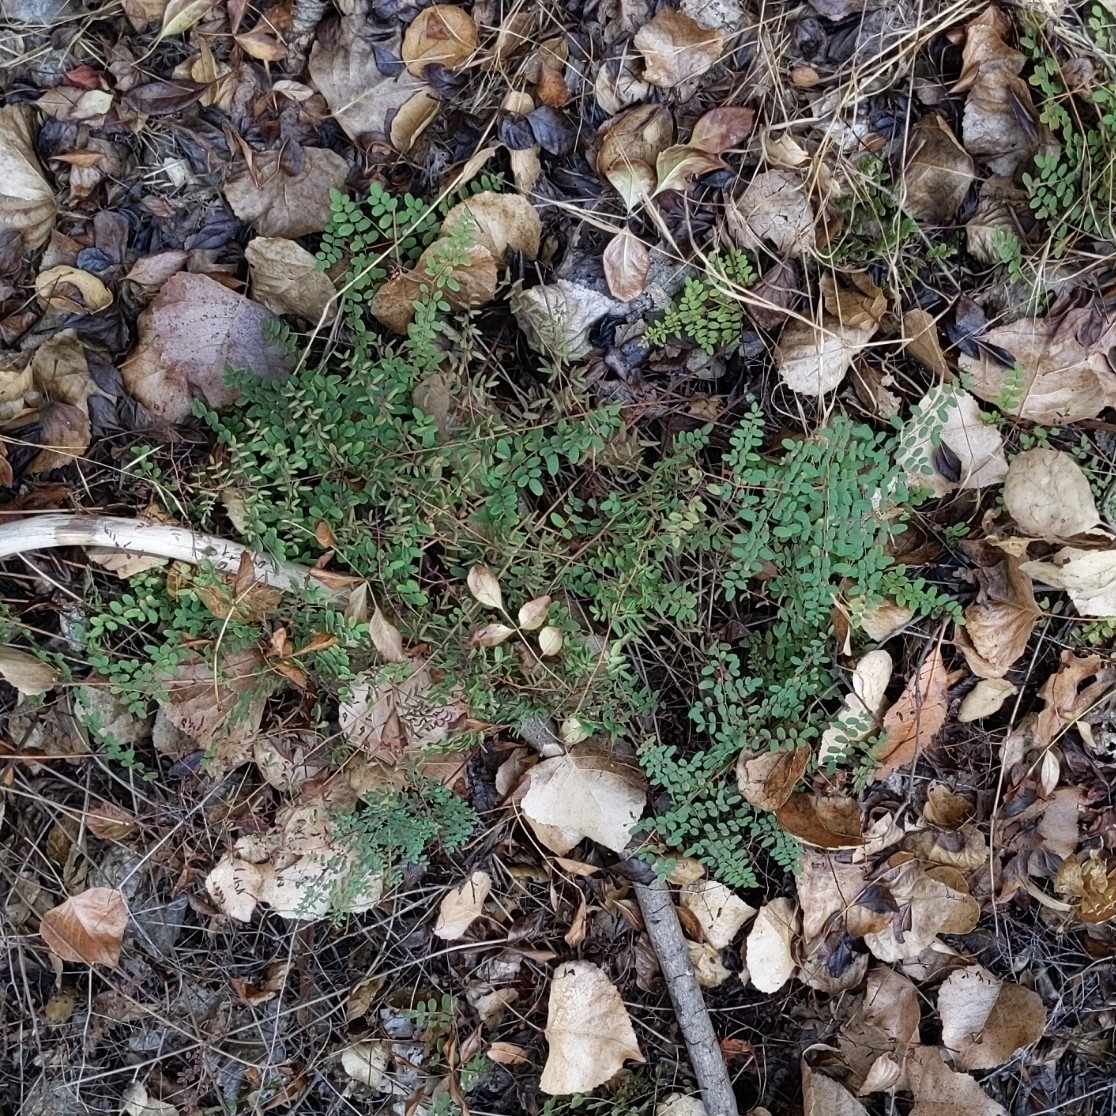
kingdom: Plantae
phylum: Tracheophyta
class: Polypodiopsida
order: Polypodiales
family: Pteridaceae
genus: Pellaea
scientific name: Pellaea andromedifolia
